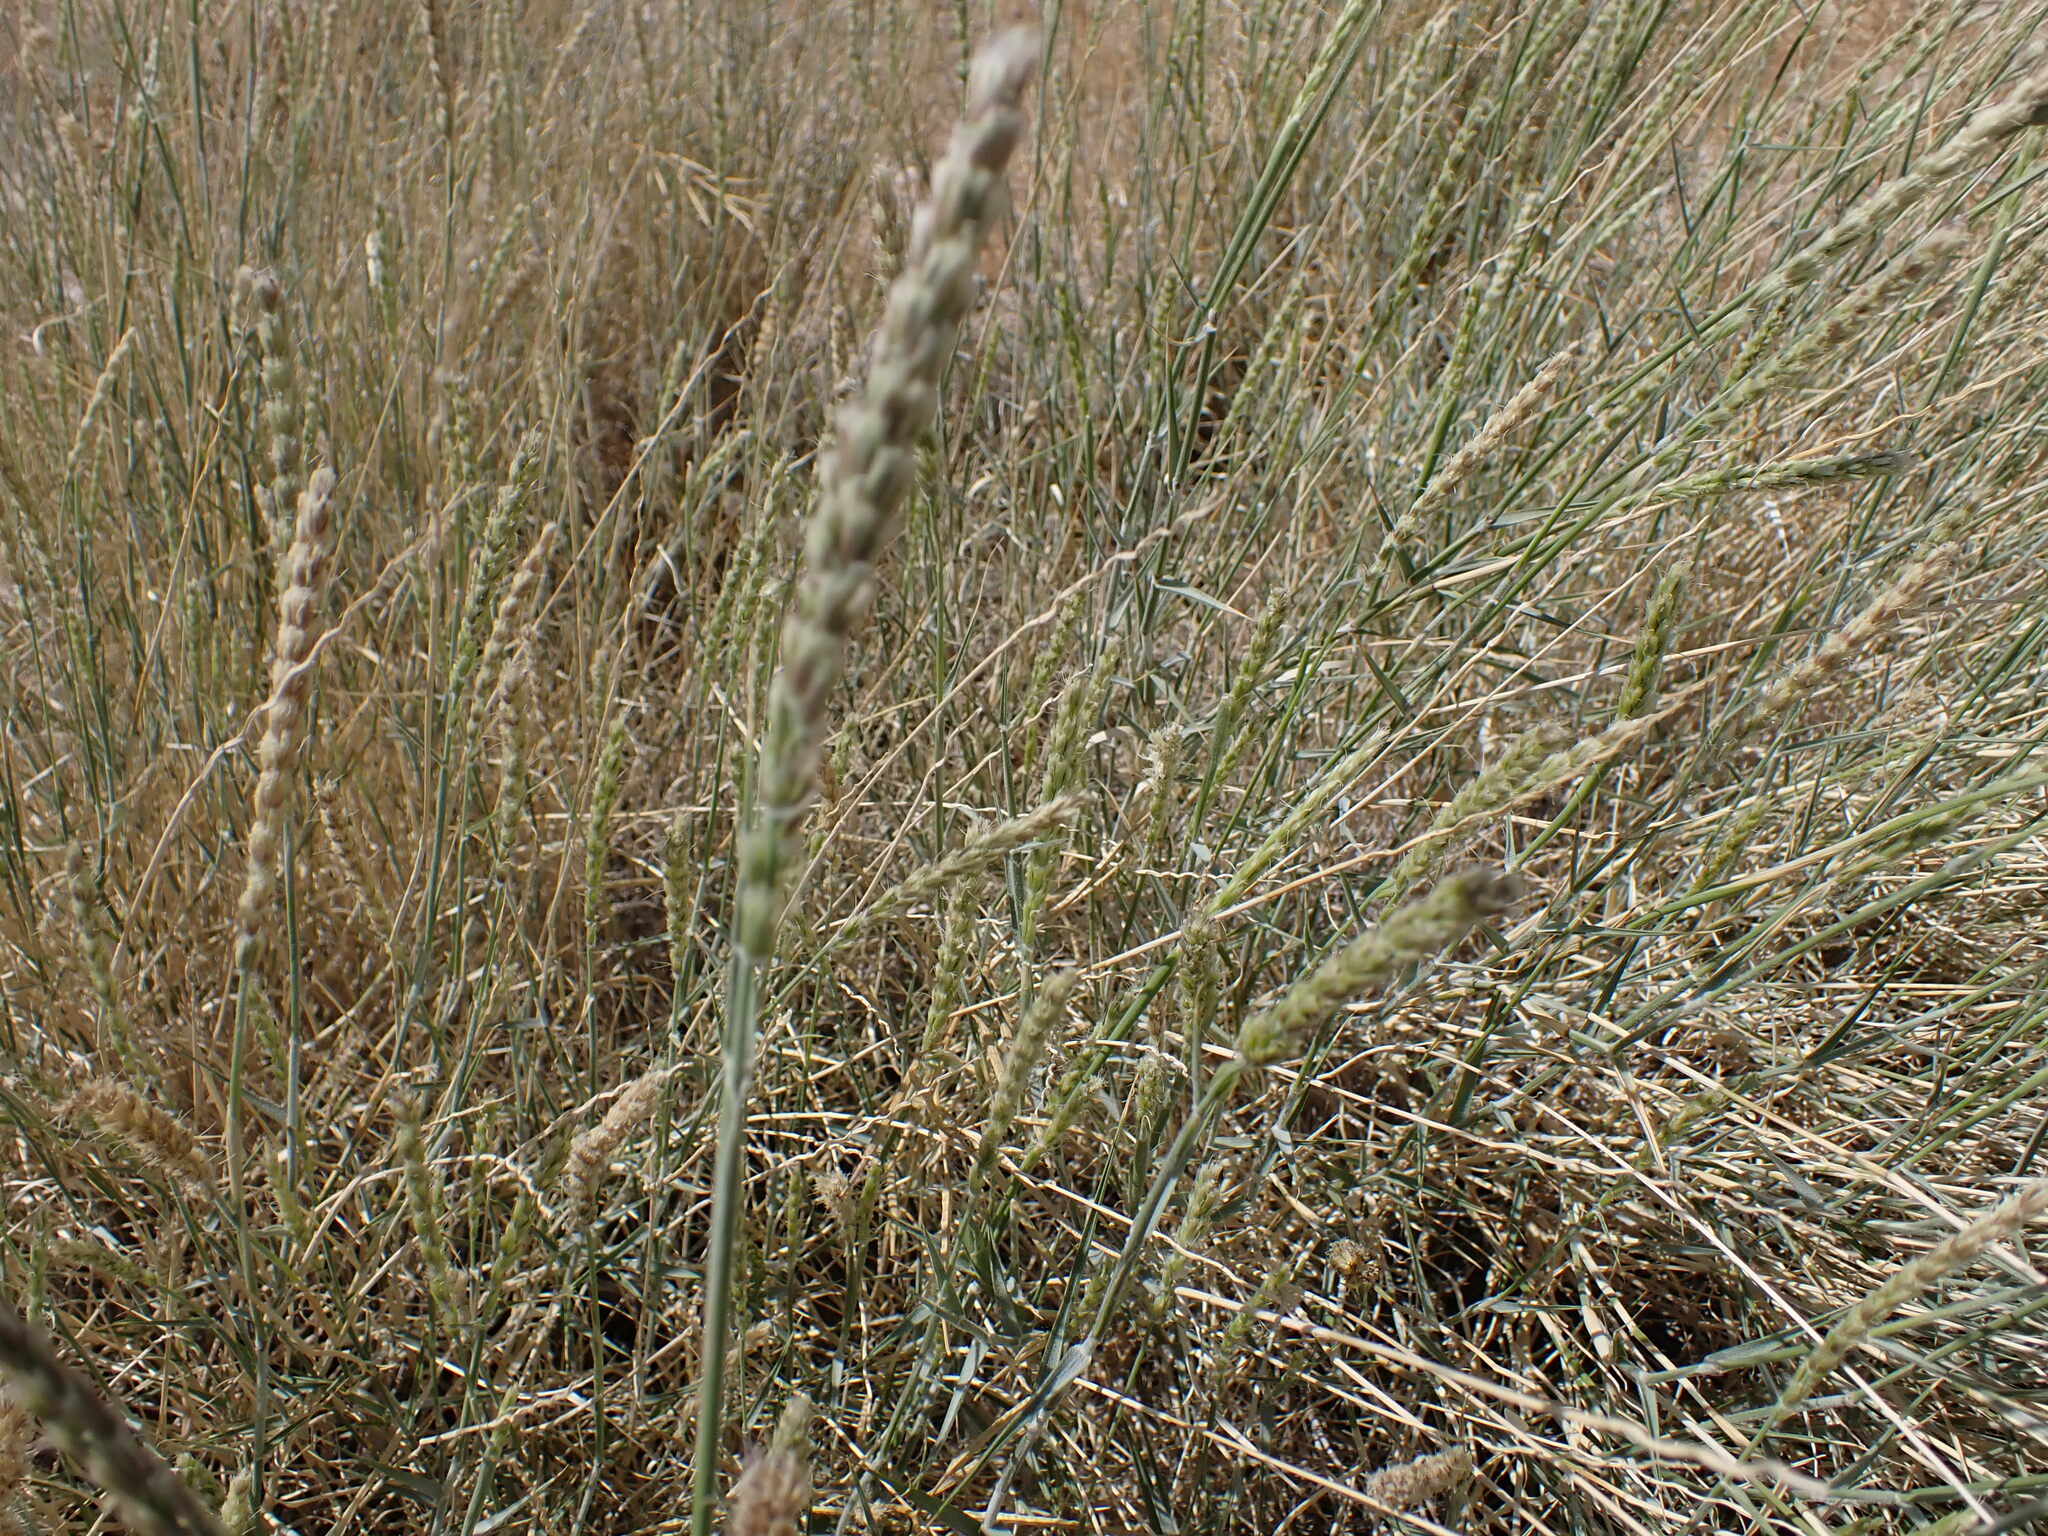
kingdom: Plantae
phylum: Tracheophyta
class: Liliopsida
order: Poales
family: Poaceae
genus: Hilaria
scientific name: Hilaria rigida
